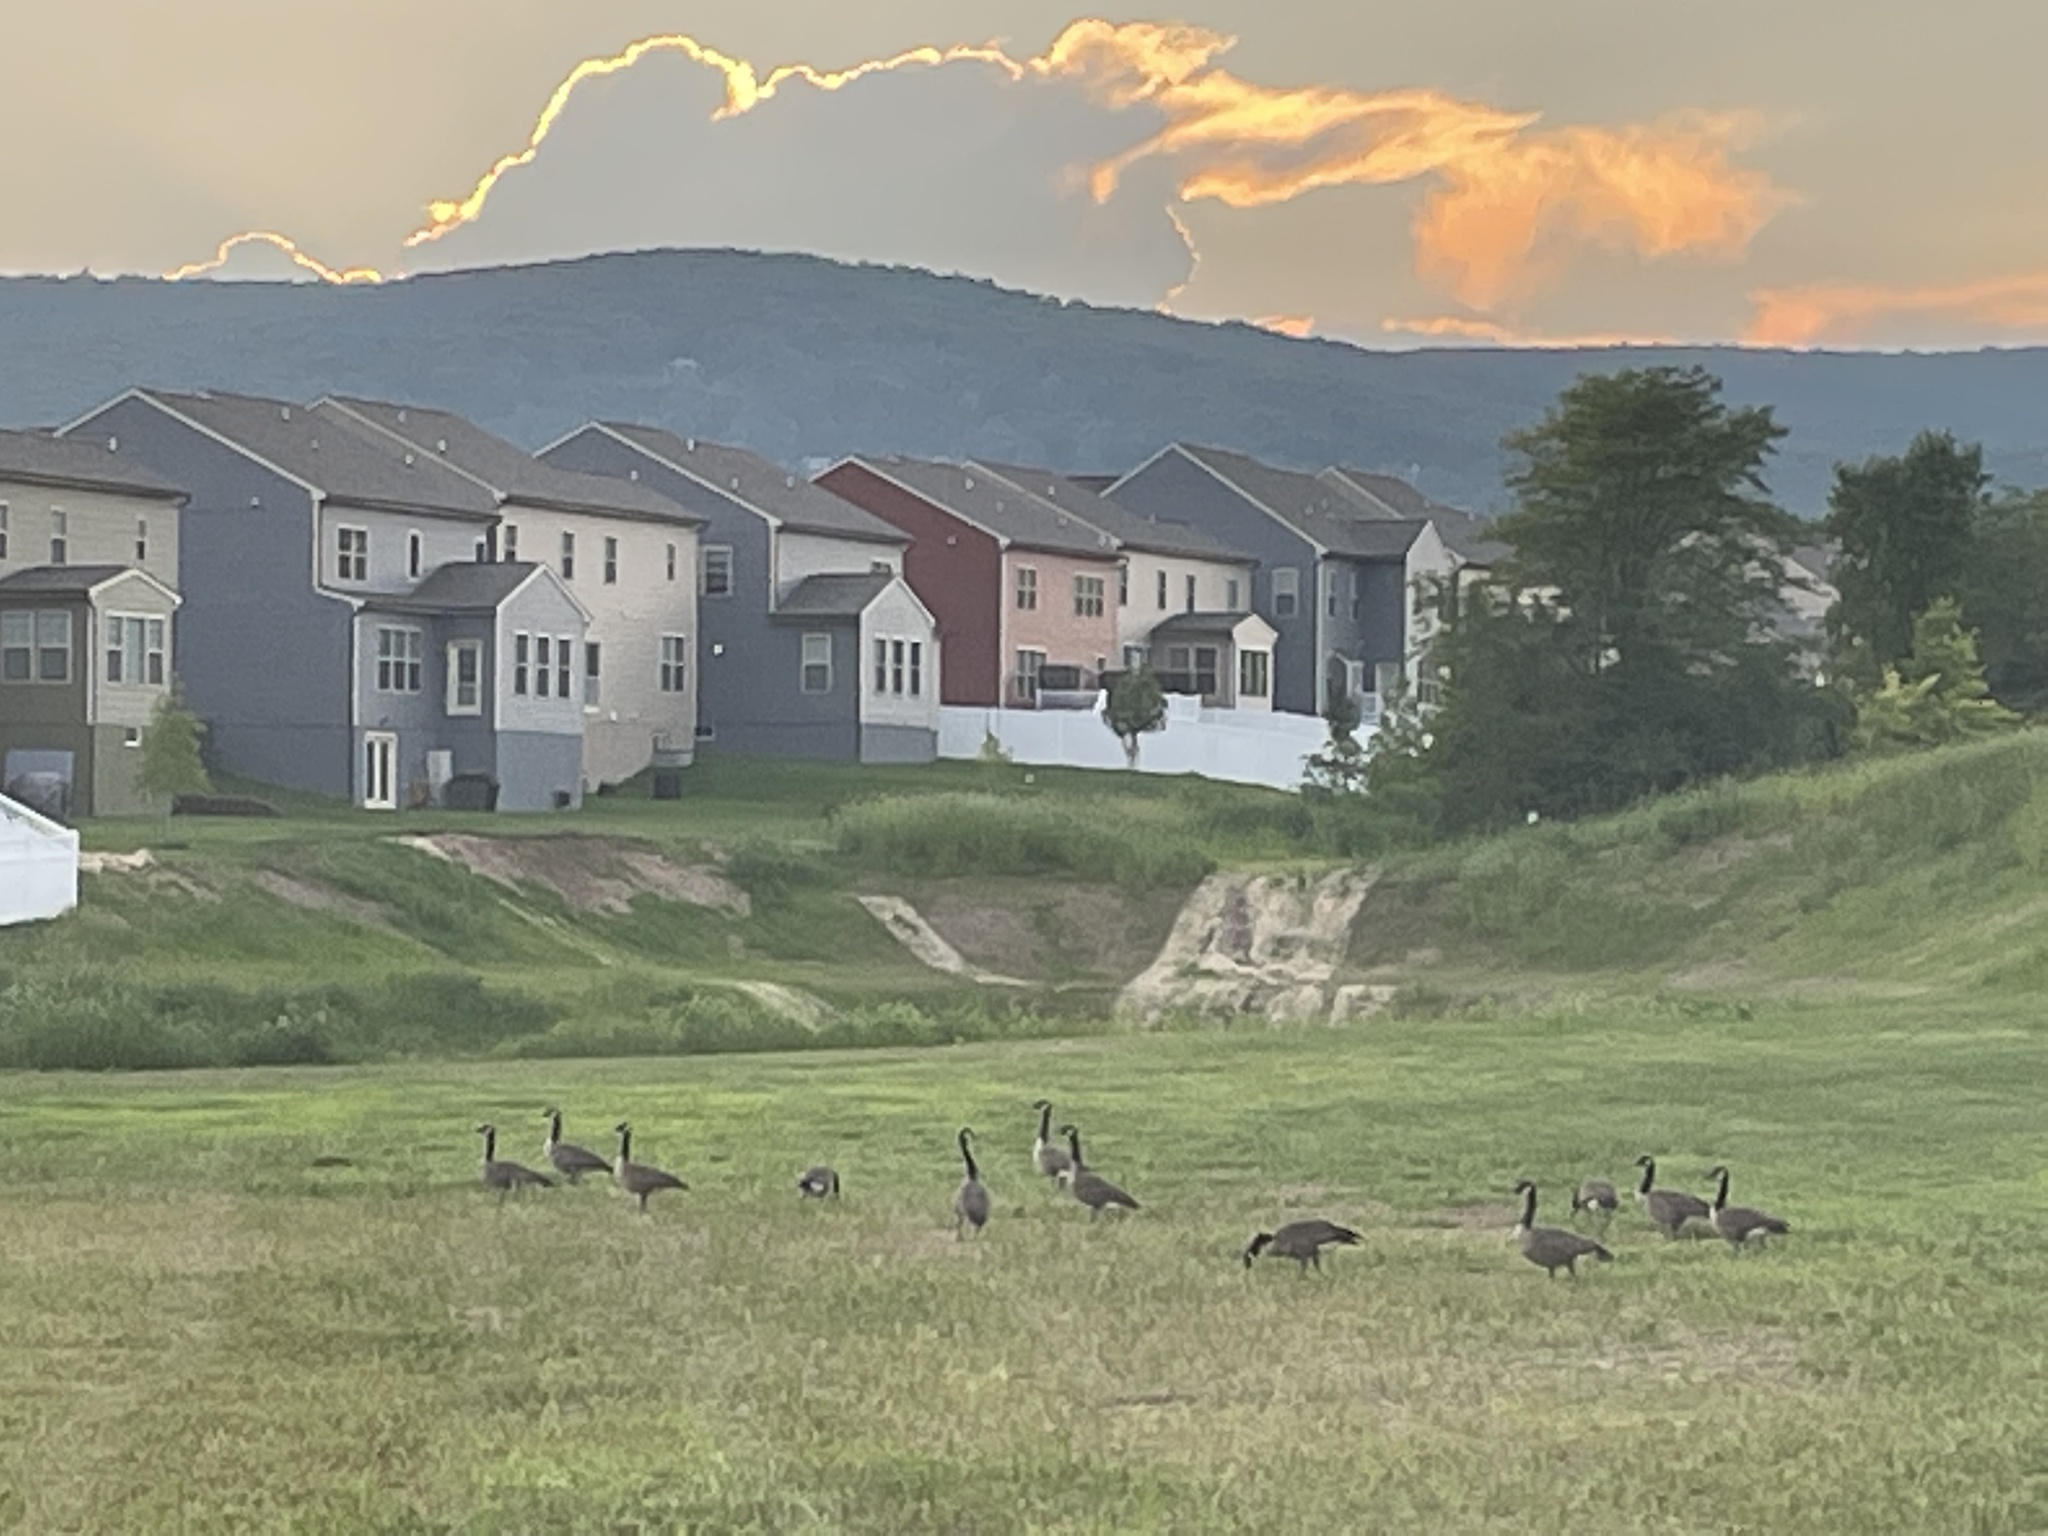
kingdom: Animalia
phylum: Chordata
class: Aves
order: Anseriformes
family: Anatidae
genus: Branta
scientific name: Branta canadensis
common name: Canada goose
